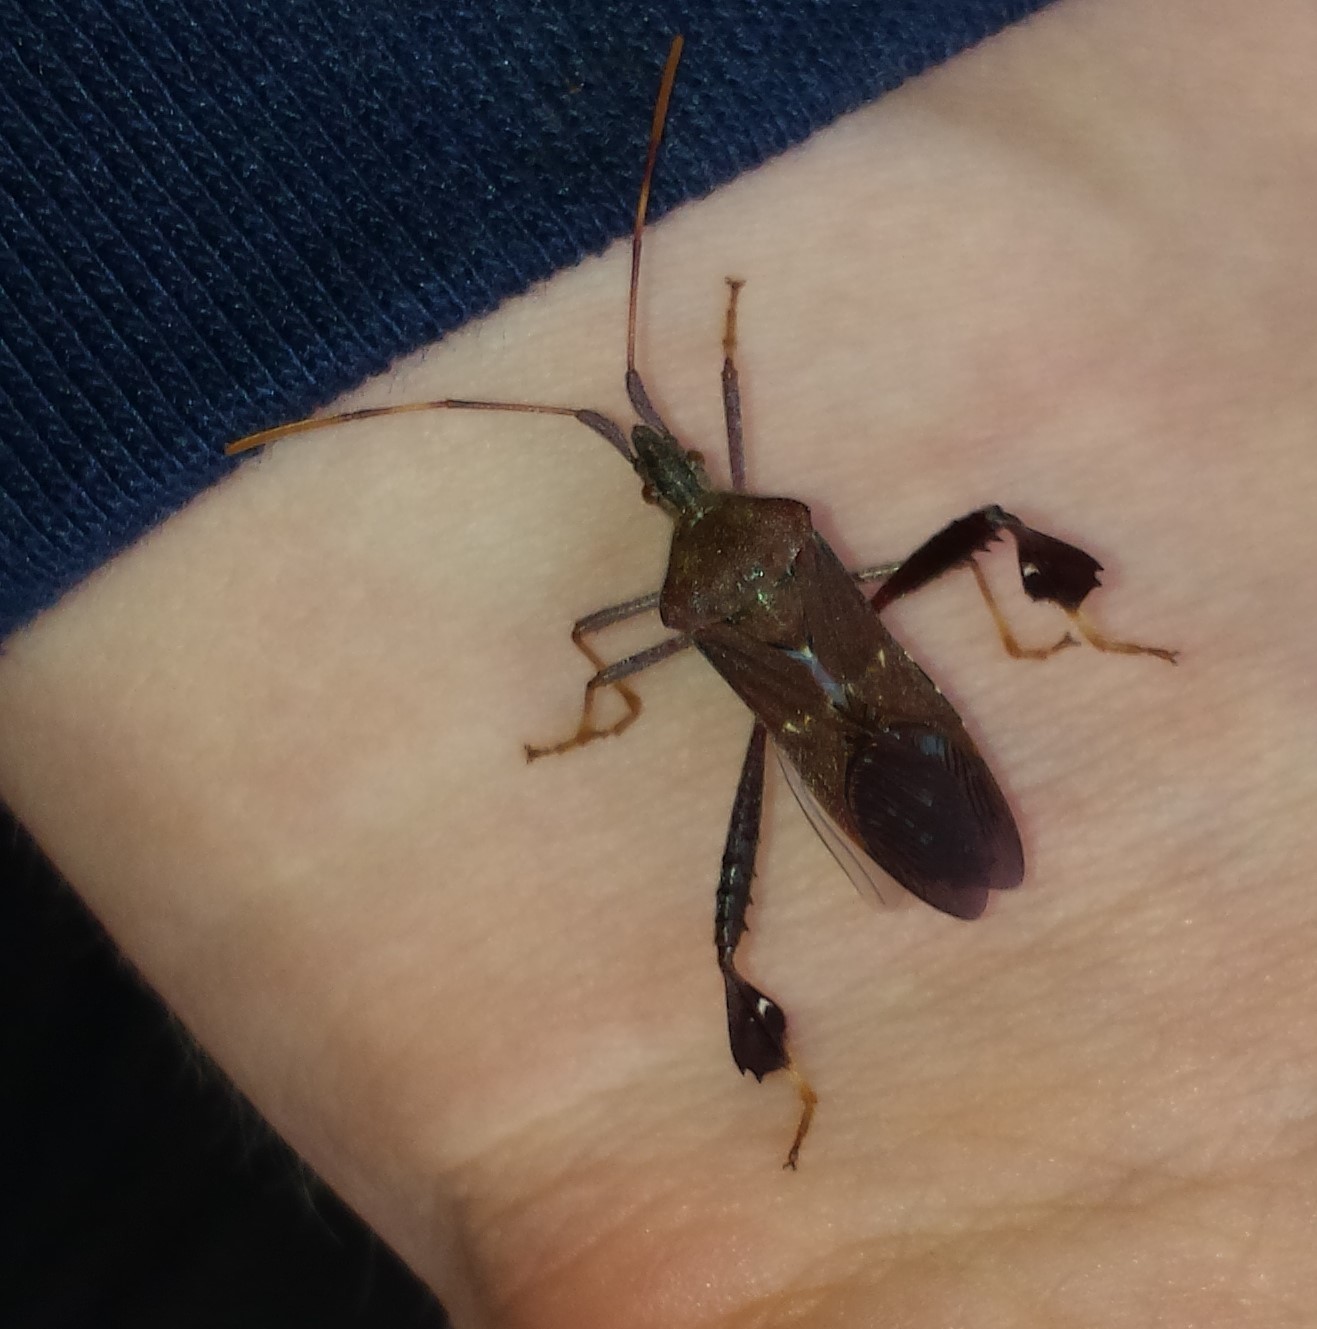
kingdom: Animalia
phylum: Arthropoda
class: Insecta
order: Hemiptera
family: Coreidae
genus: Leptoglossus
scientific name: Leptoglossus oppositus
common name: Northern leaf-footed bug
